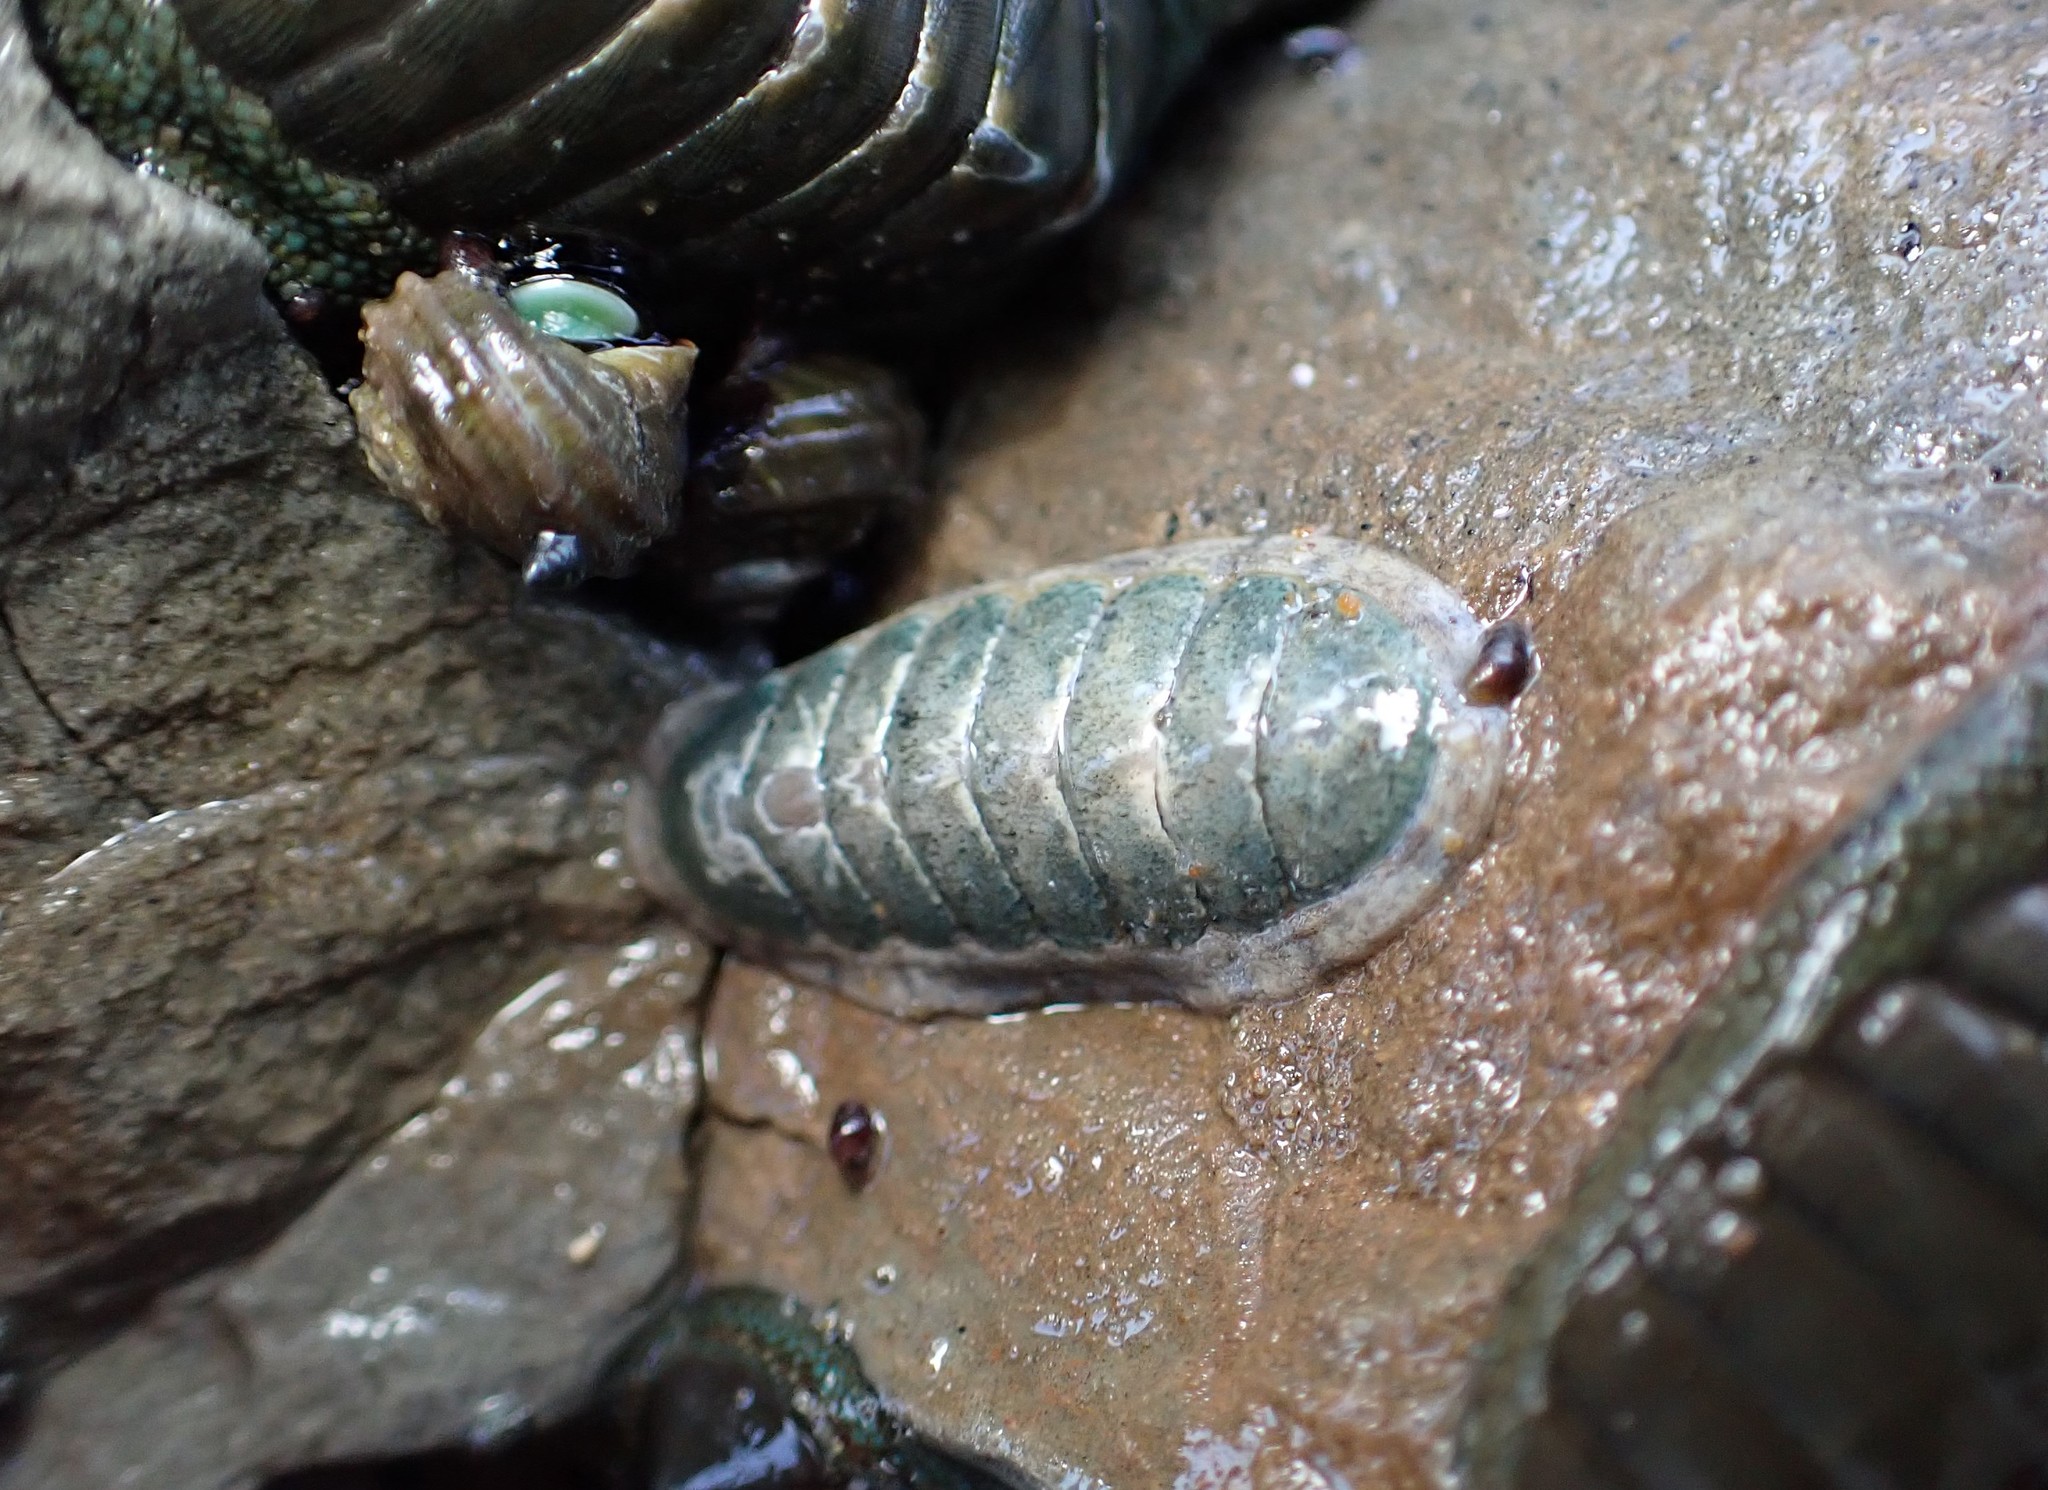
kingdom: Animalia
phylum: Mollusca
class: Polyplacophora
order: Chitonida
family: Ischnochitonidae
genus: Ischnochiton
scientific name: Ischnochiton maorianus
